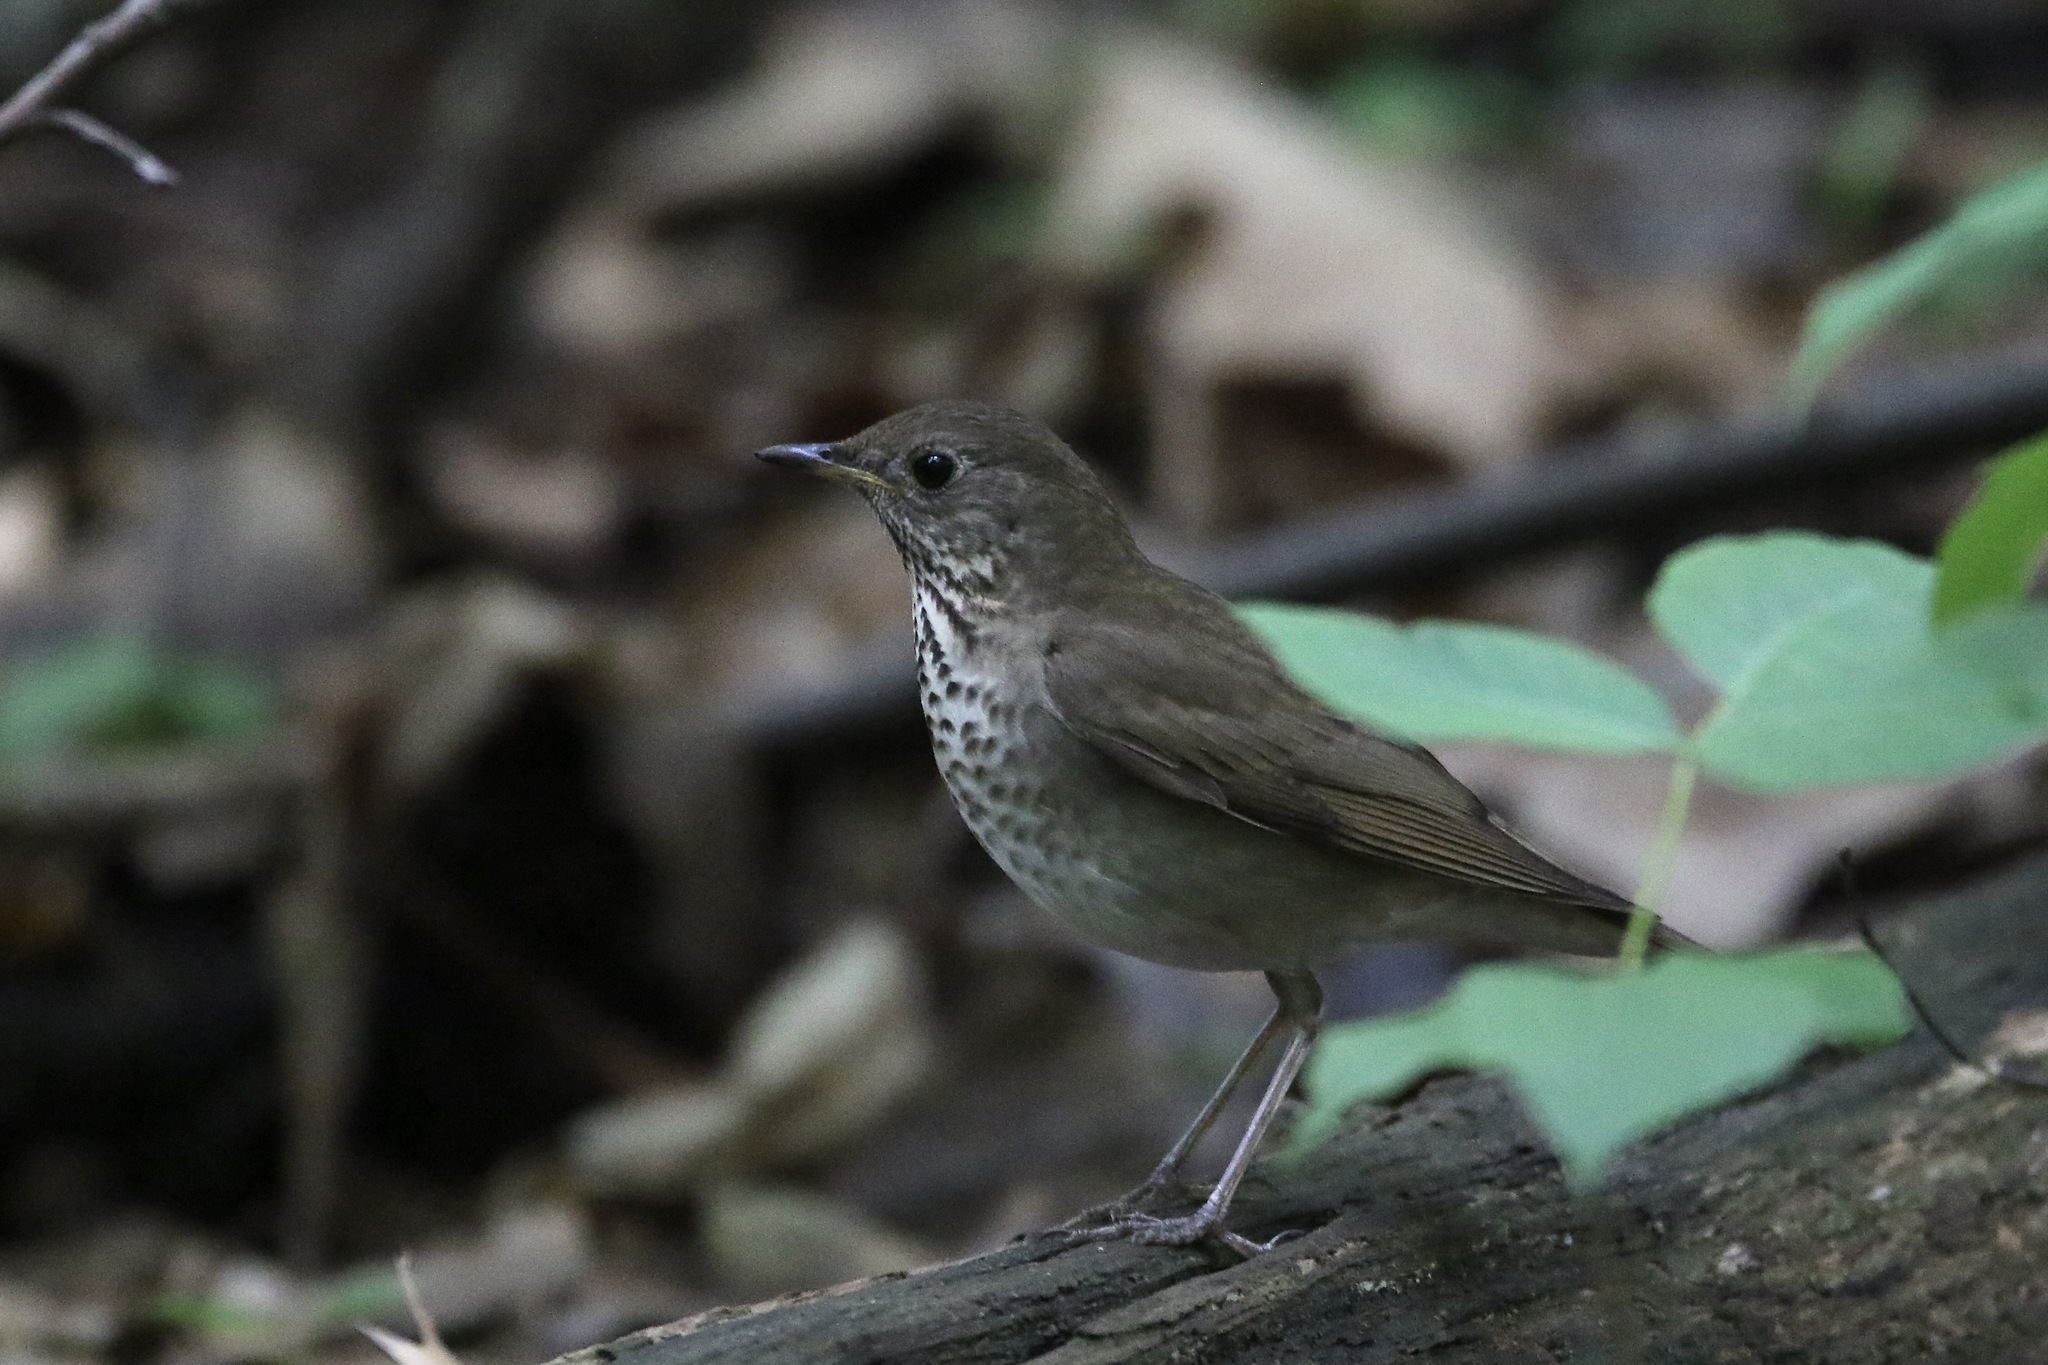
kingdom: Animalia
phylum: Chordata
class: Aves
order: Passeriformes
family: Turdidae
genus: Catharus
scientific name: Catharus minimus
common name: Grey-cheeked thrush
